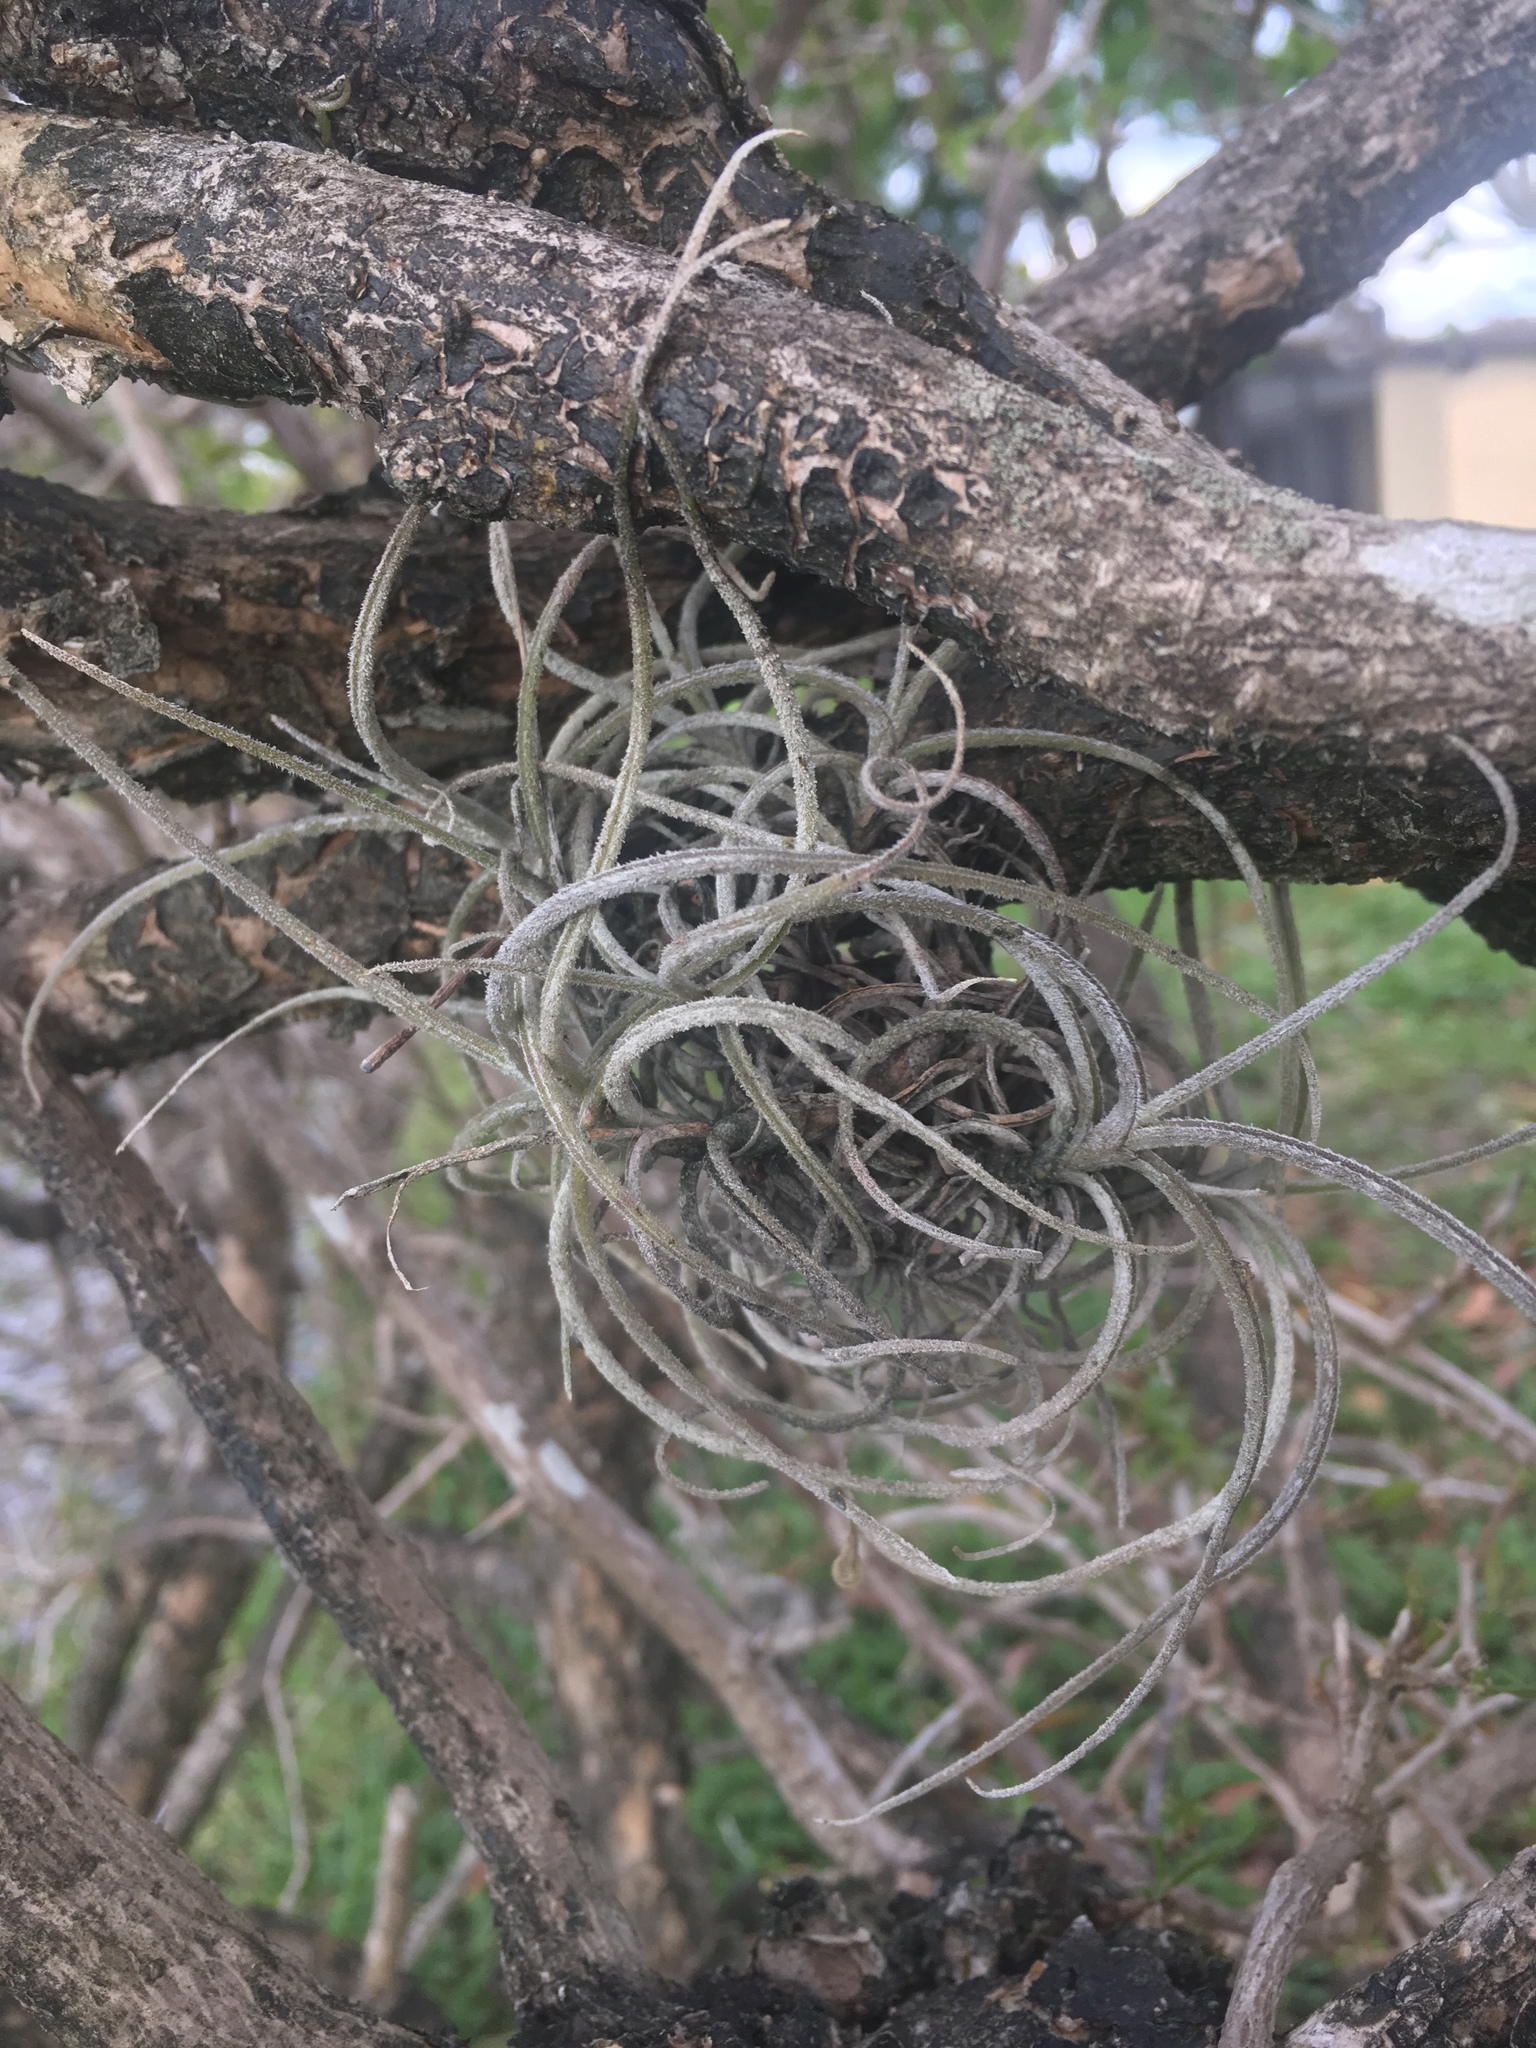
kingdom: Plantae
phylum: Tracheophyta
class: Liliopsida
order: Poales
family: Bromeliaceae
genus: Tillandsia
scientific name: Tillandsia recurvata
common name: Small ballmoss
